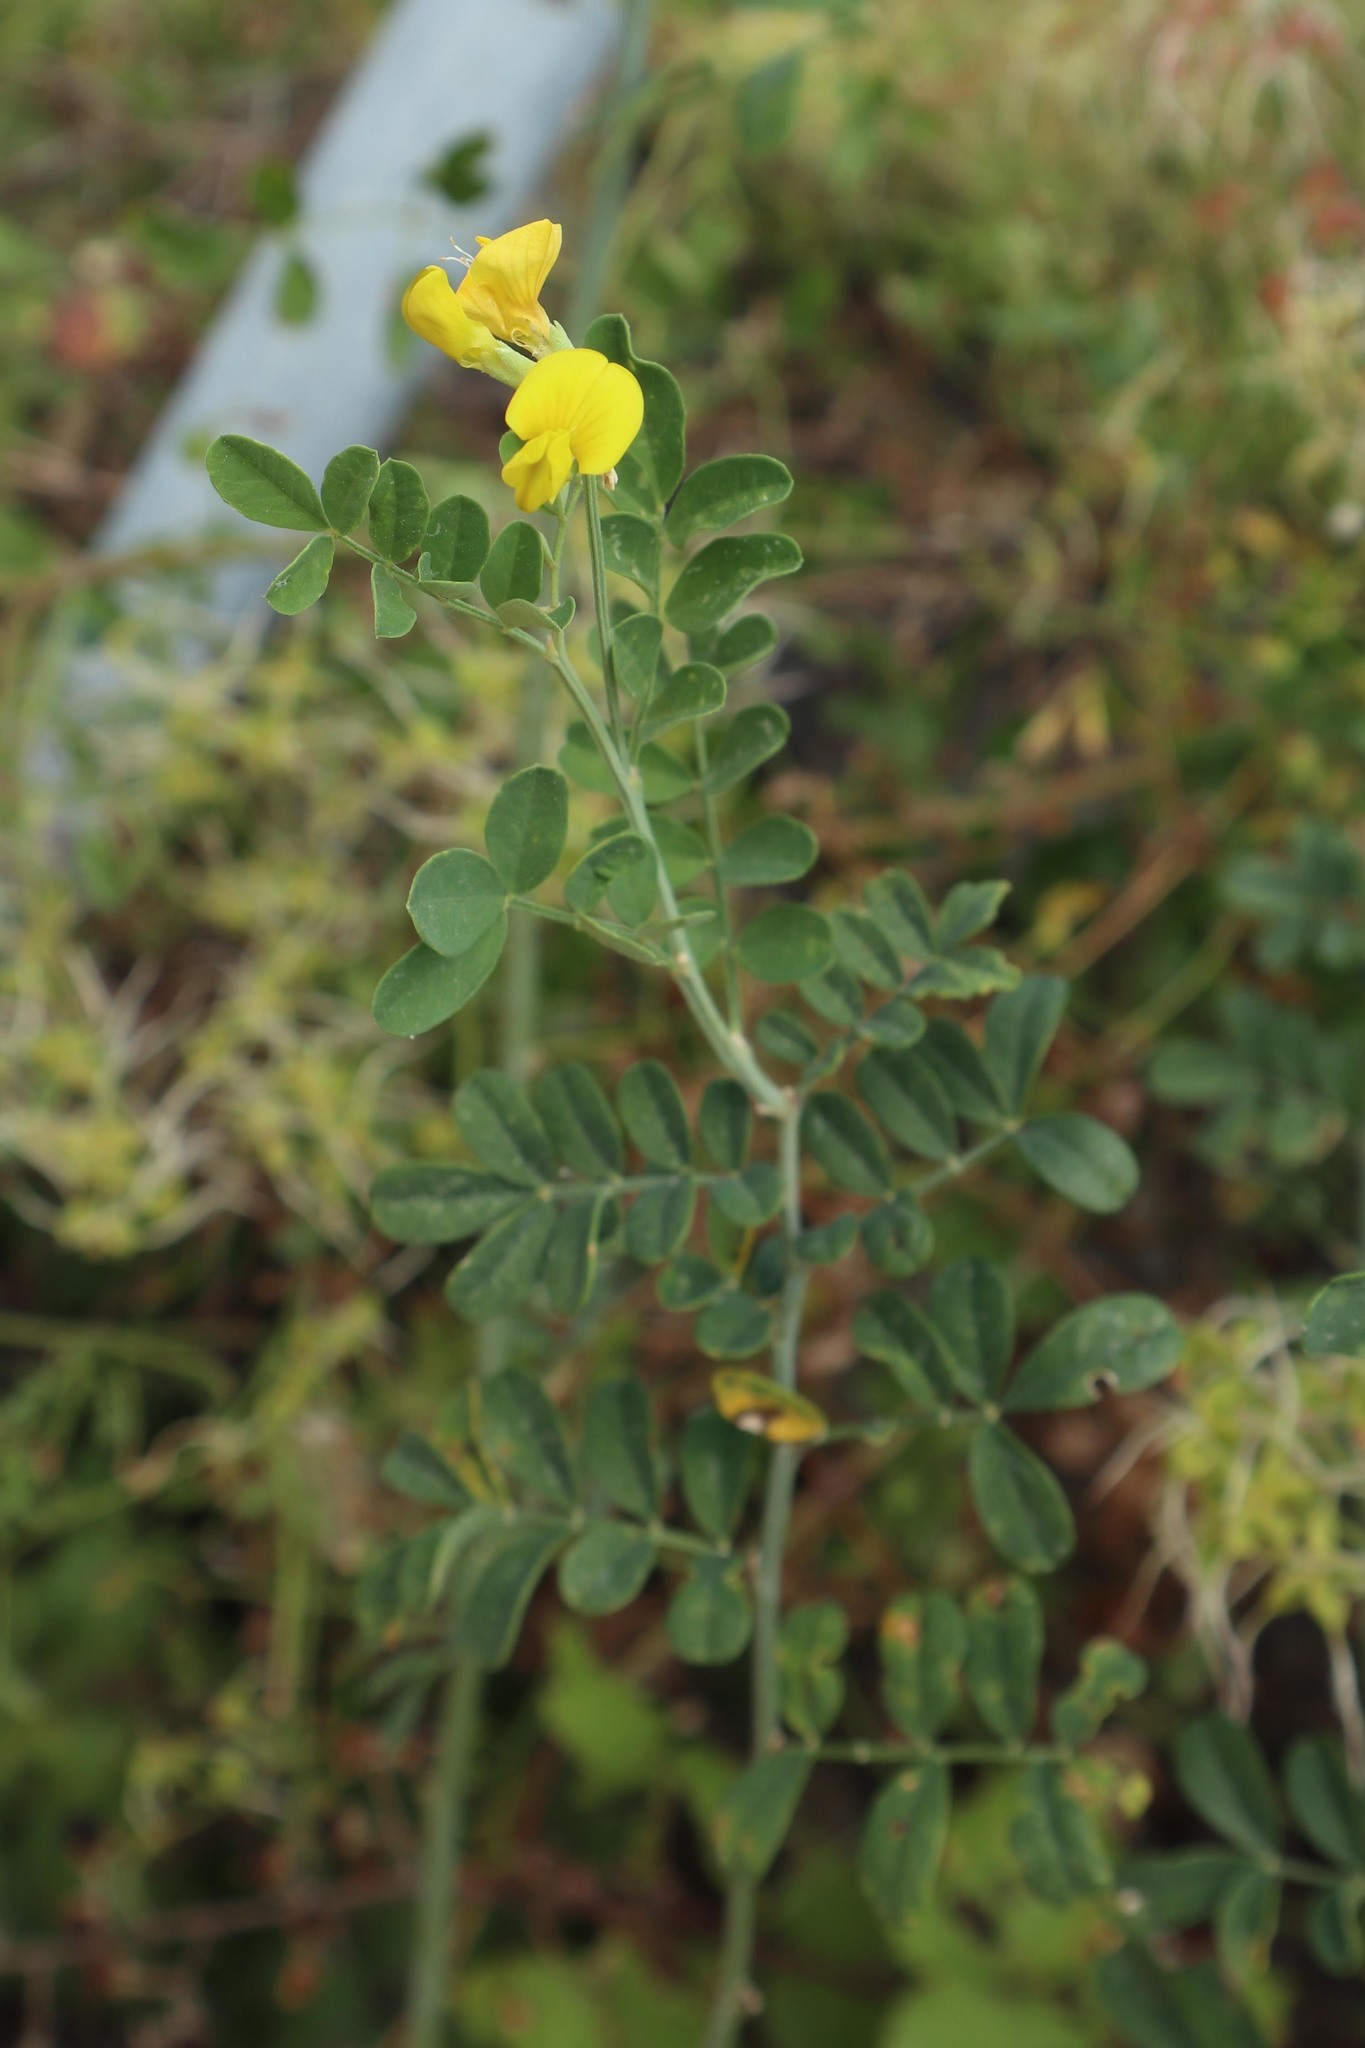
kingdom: Plantae
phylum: Tracheophyta
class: Magnoliopsida
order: Fabales
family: Fabaceae
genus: Hippocrepis
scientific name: Hippocrepis emerus
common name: Scorpion senna
